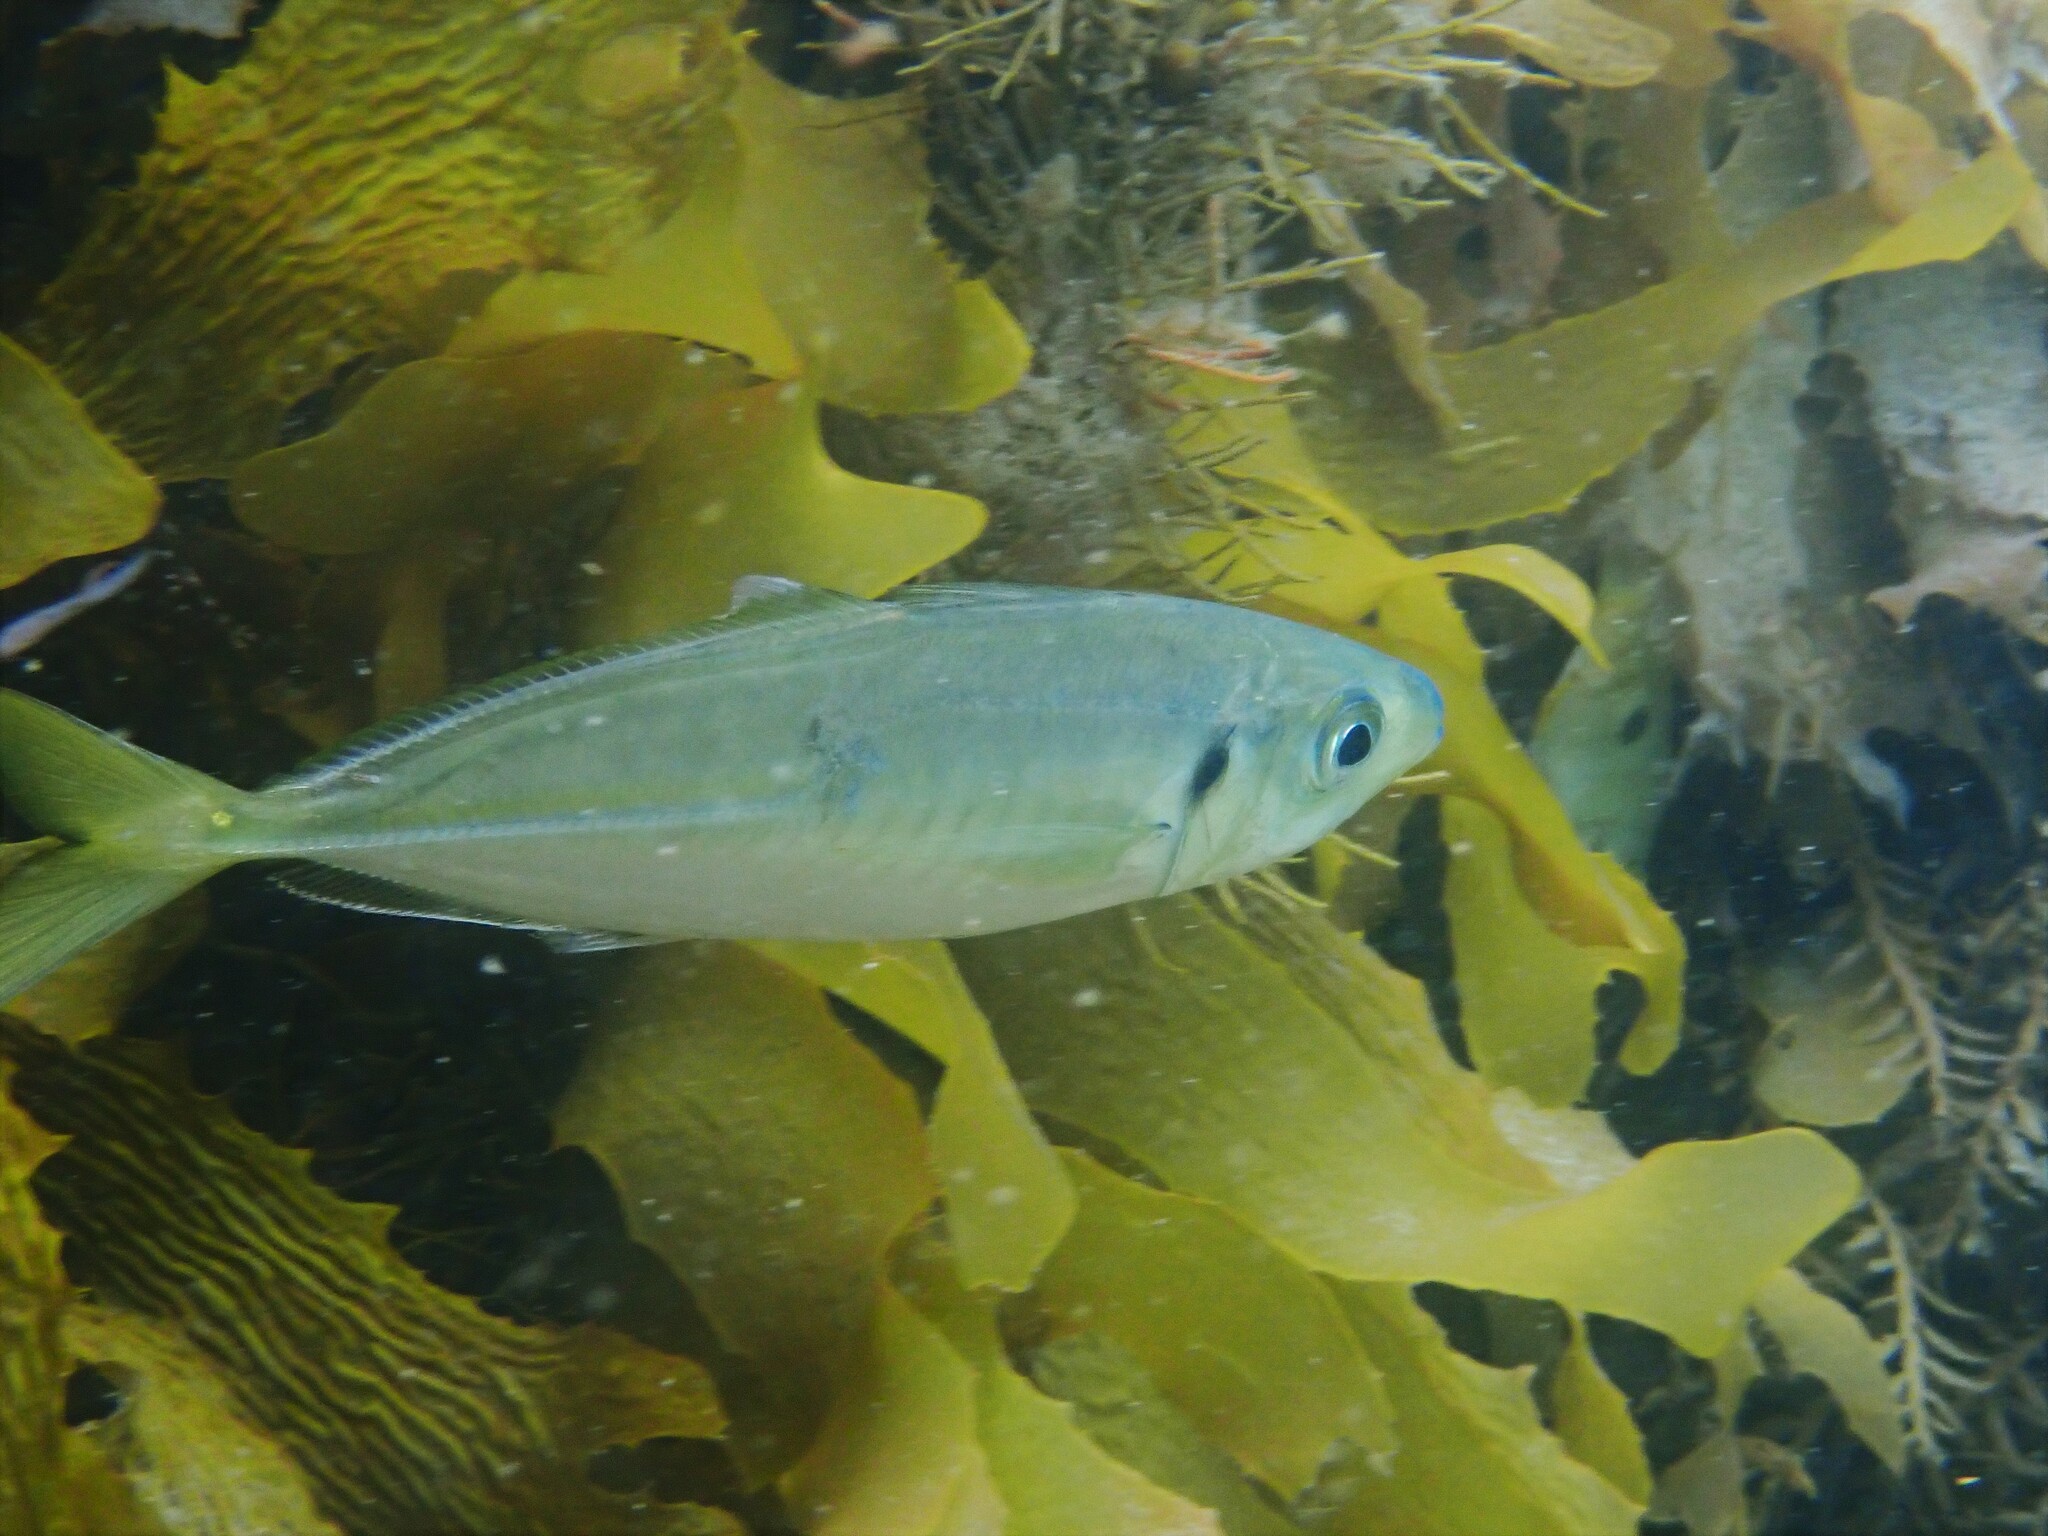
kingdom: Animalia
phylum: Chordata
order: Perciformes
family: Carangidae
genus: Trachurus
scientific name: Trachurus novaezelandiae
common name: Yellowtail horse mackerel
